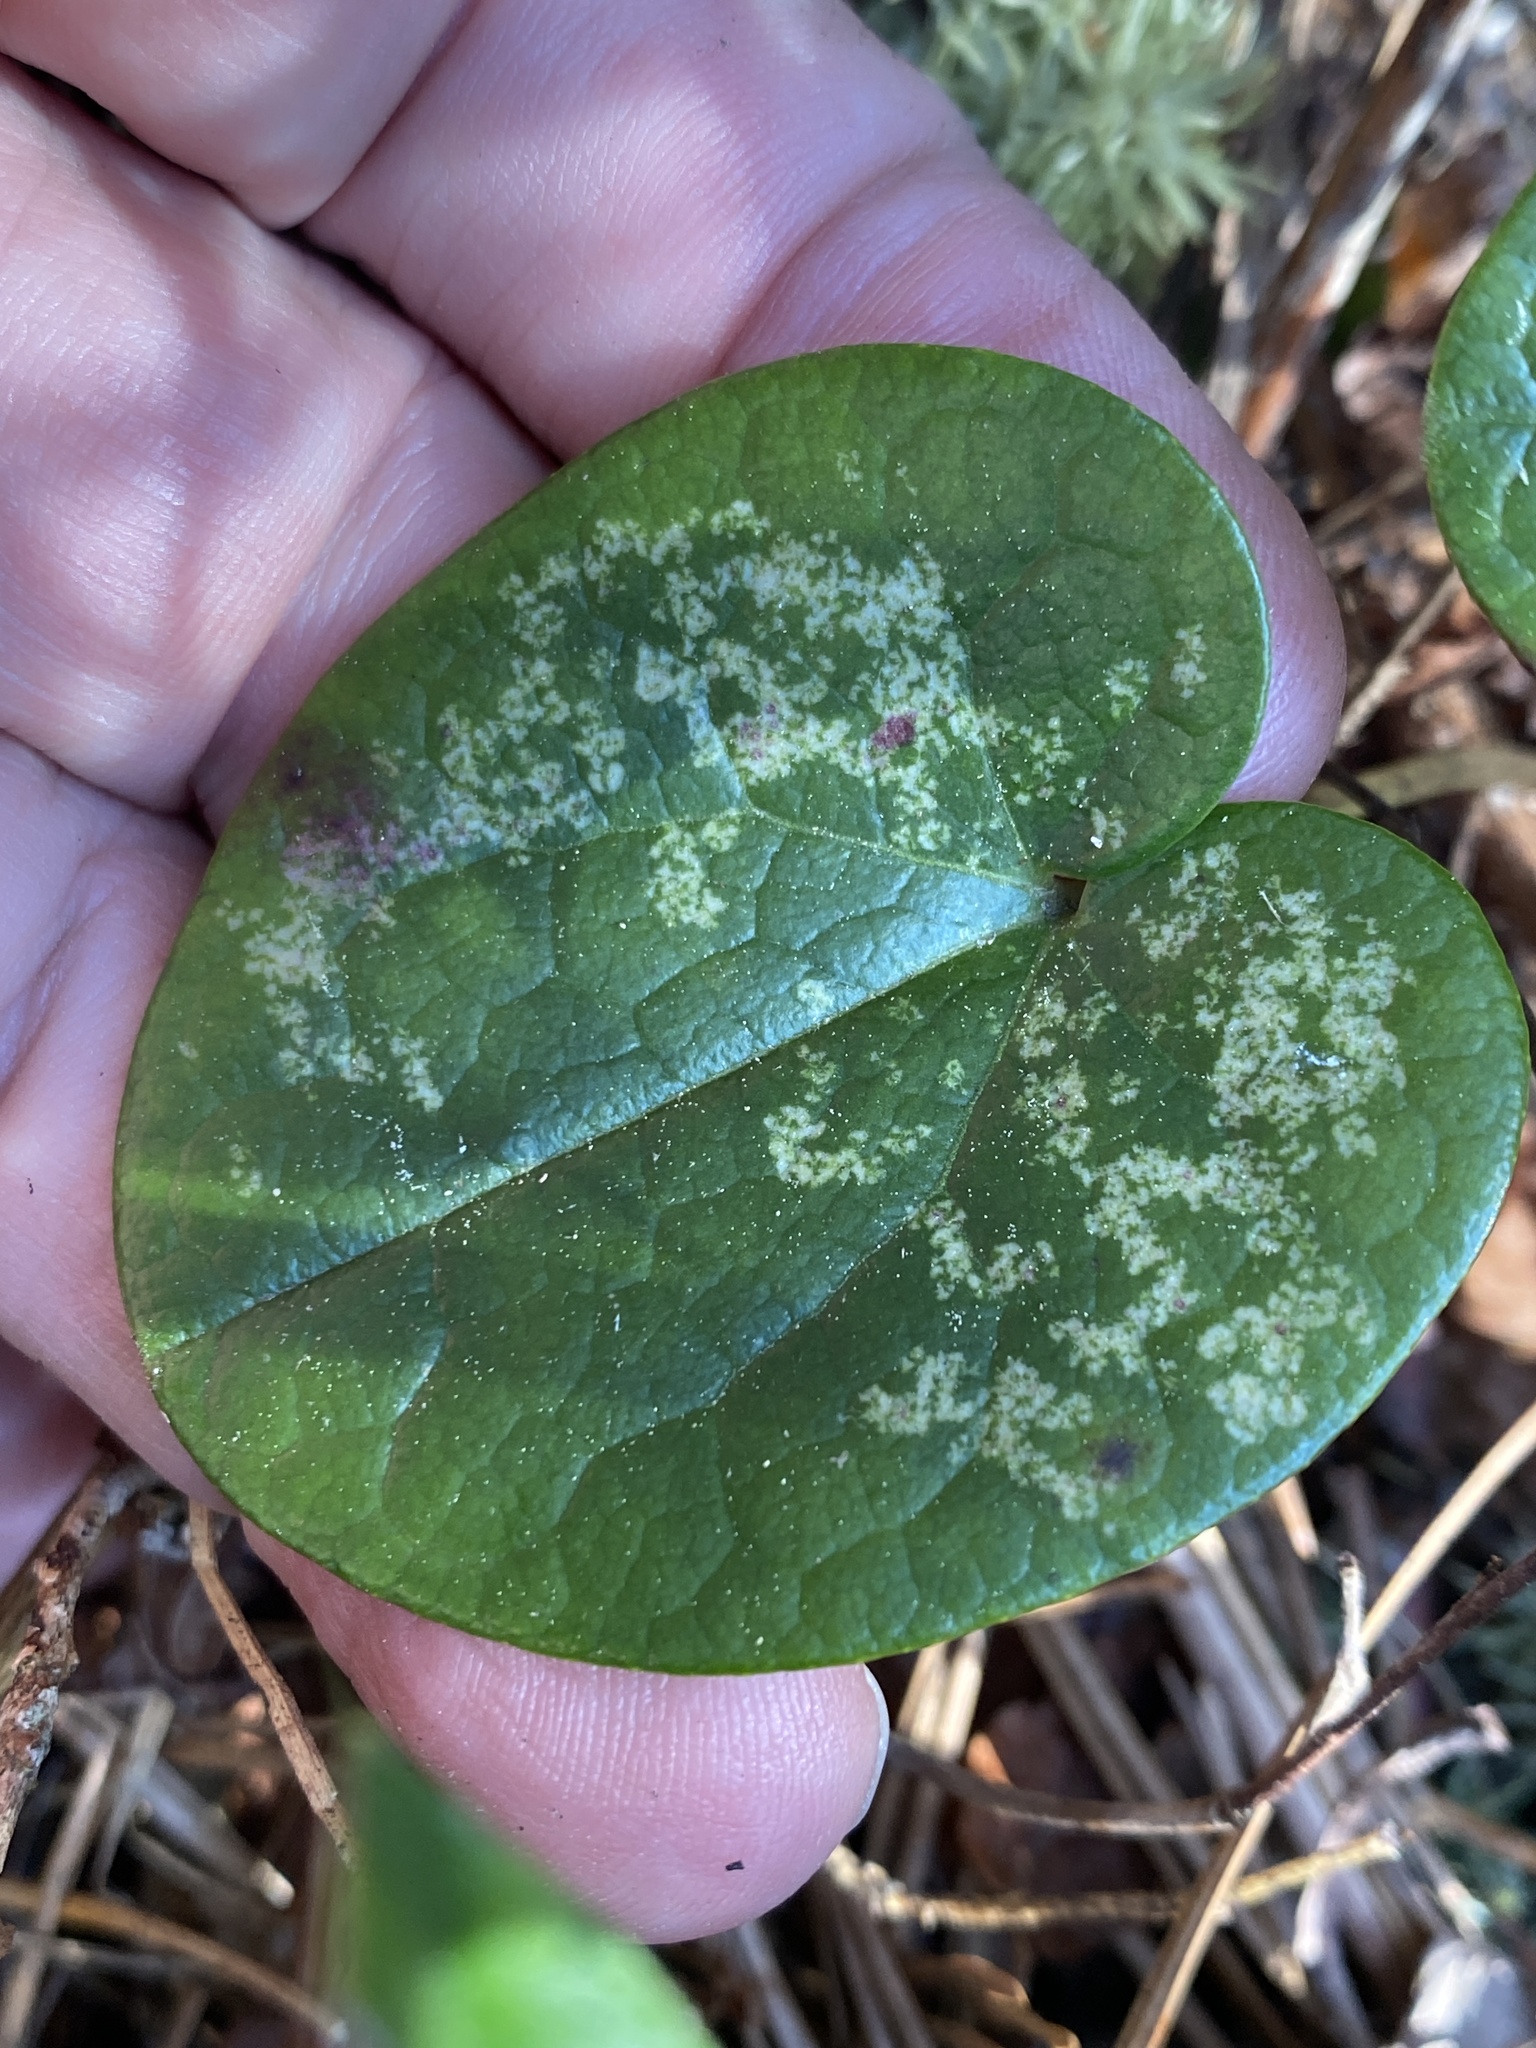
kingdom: Plantae
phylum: Tracheophyta
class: Magnoliopsida
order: Piperales
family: Aristolochiaceae
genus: Hexastylis
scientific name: Hexastylis rhombiformis
